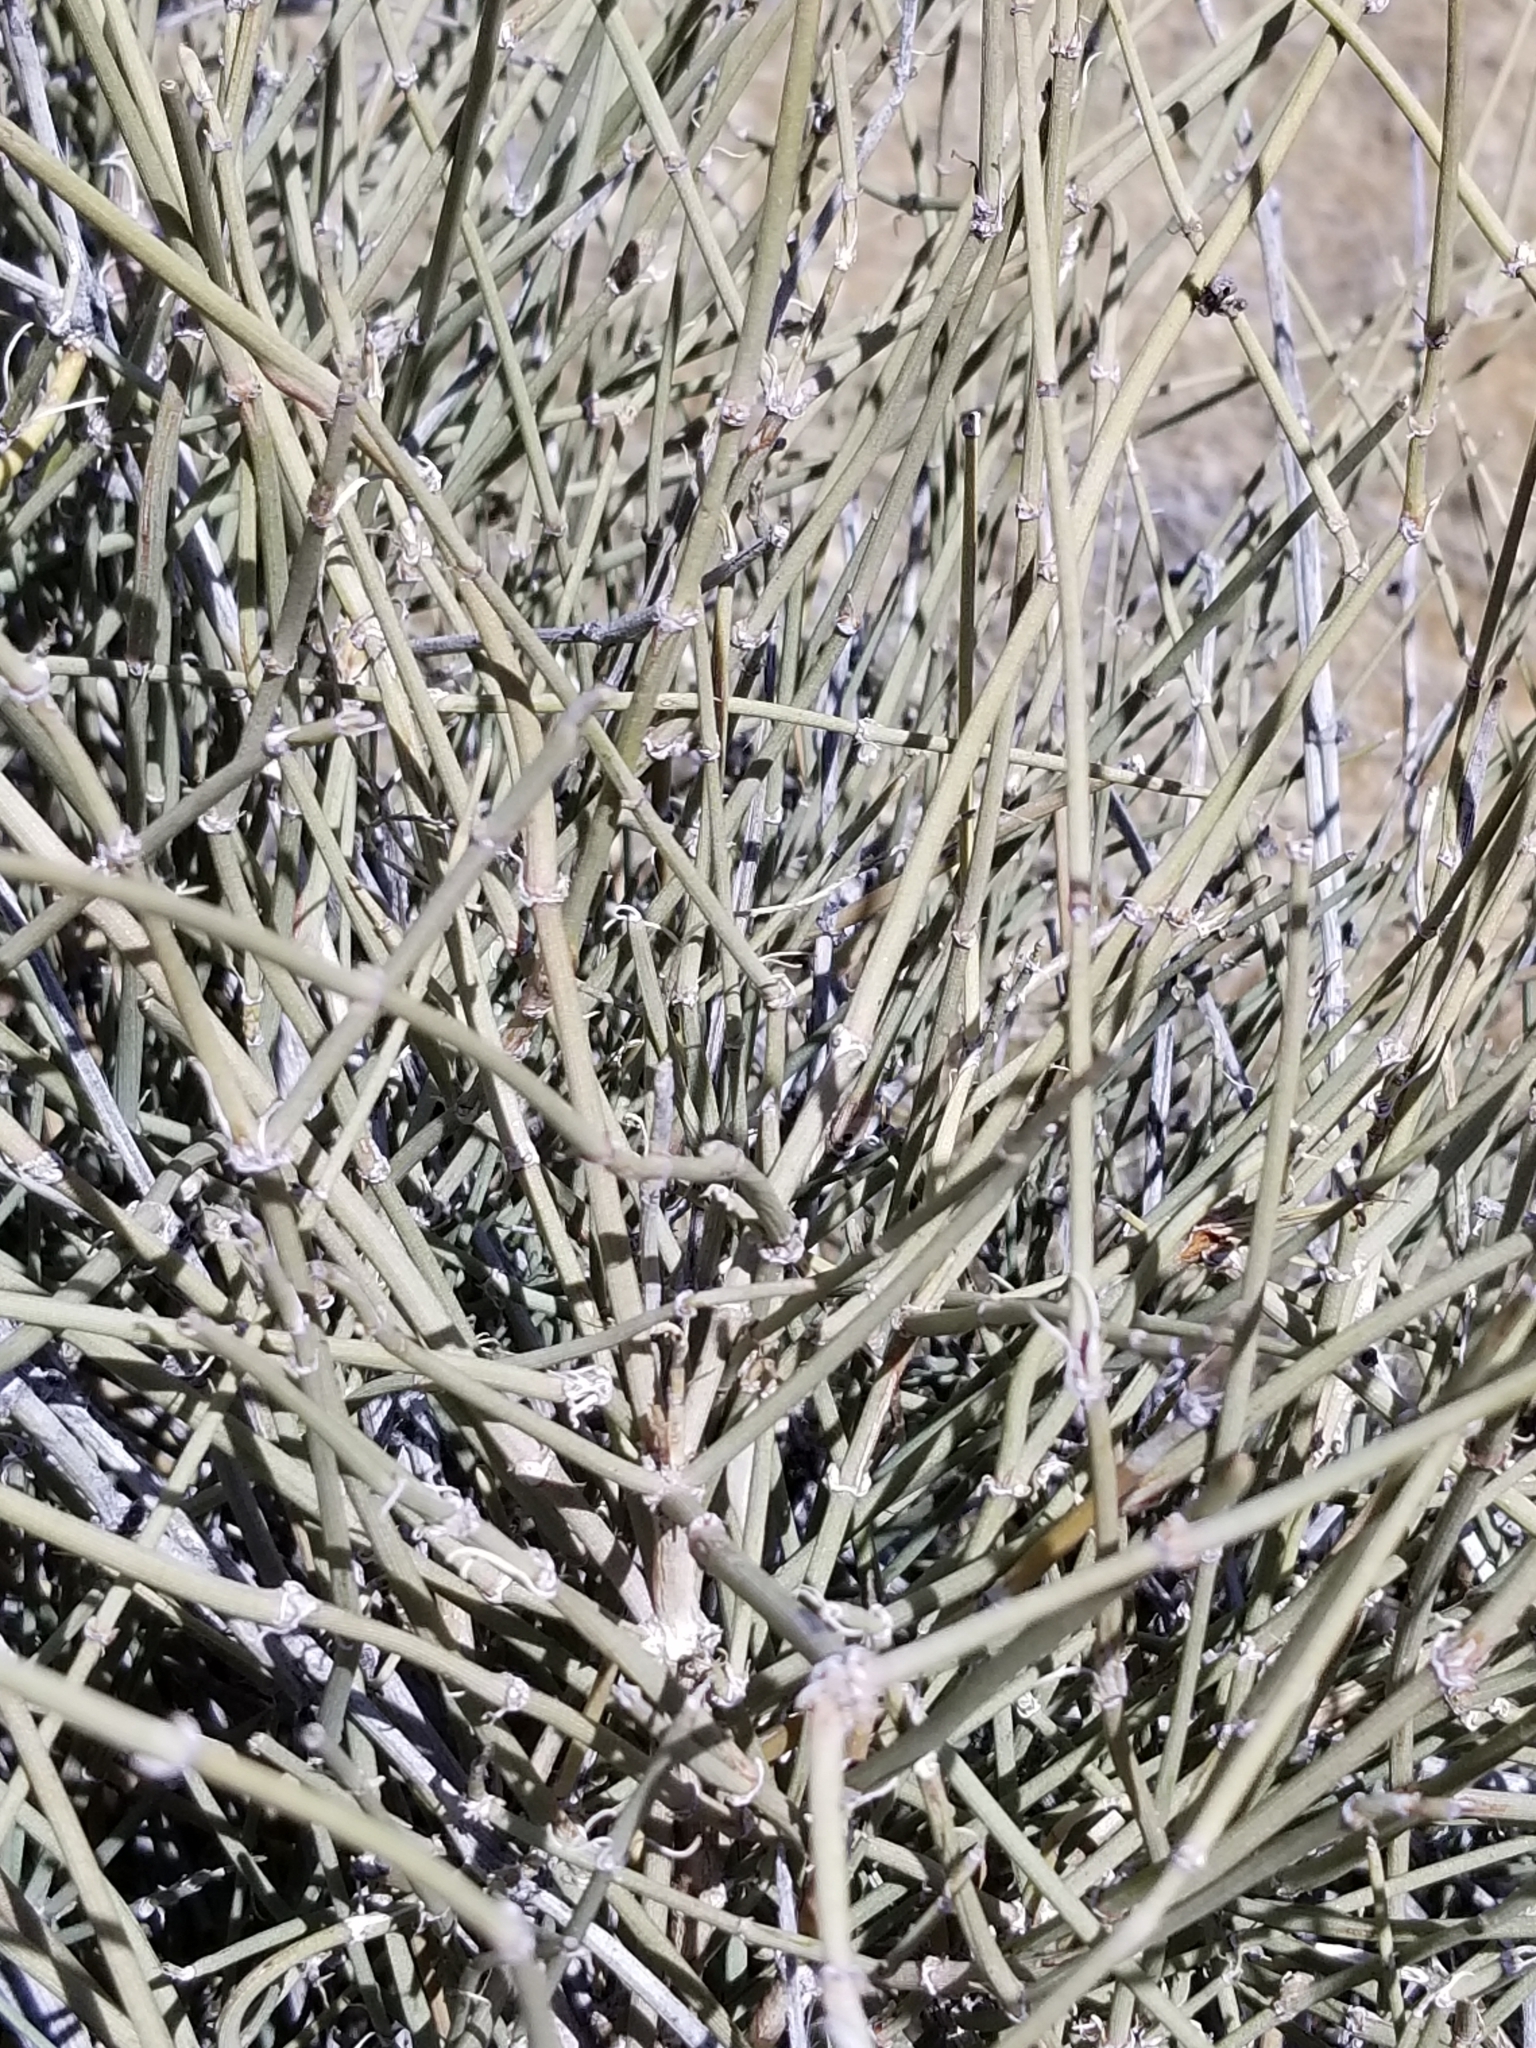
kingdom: Plantae
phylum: Tracheophyta
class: Gnetopsida
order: Ephedrales
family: Ephedraceae
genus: Ephedra
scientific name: Ephedra californica
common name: California ephedra
